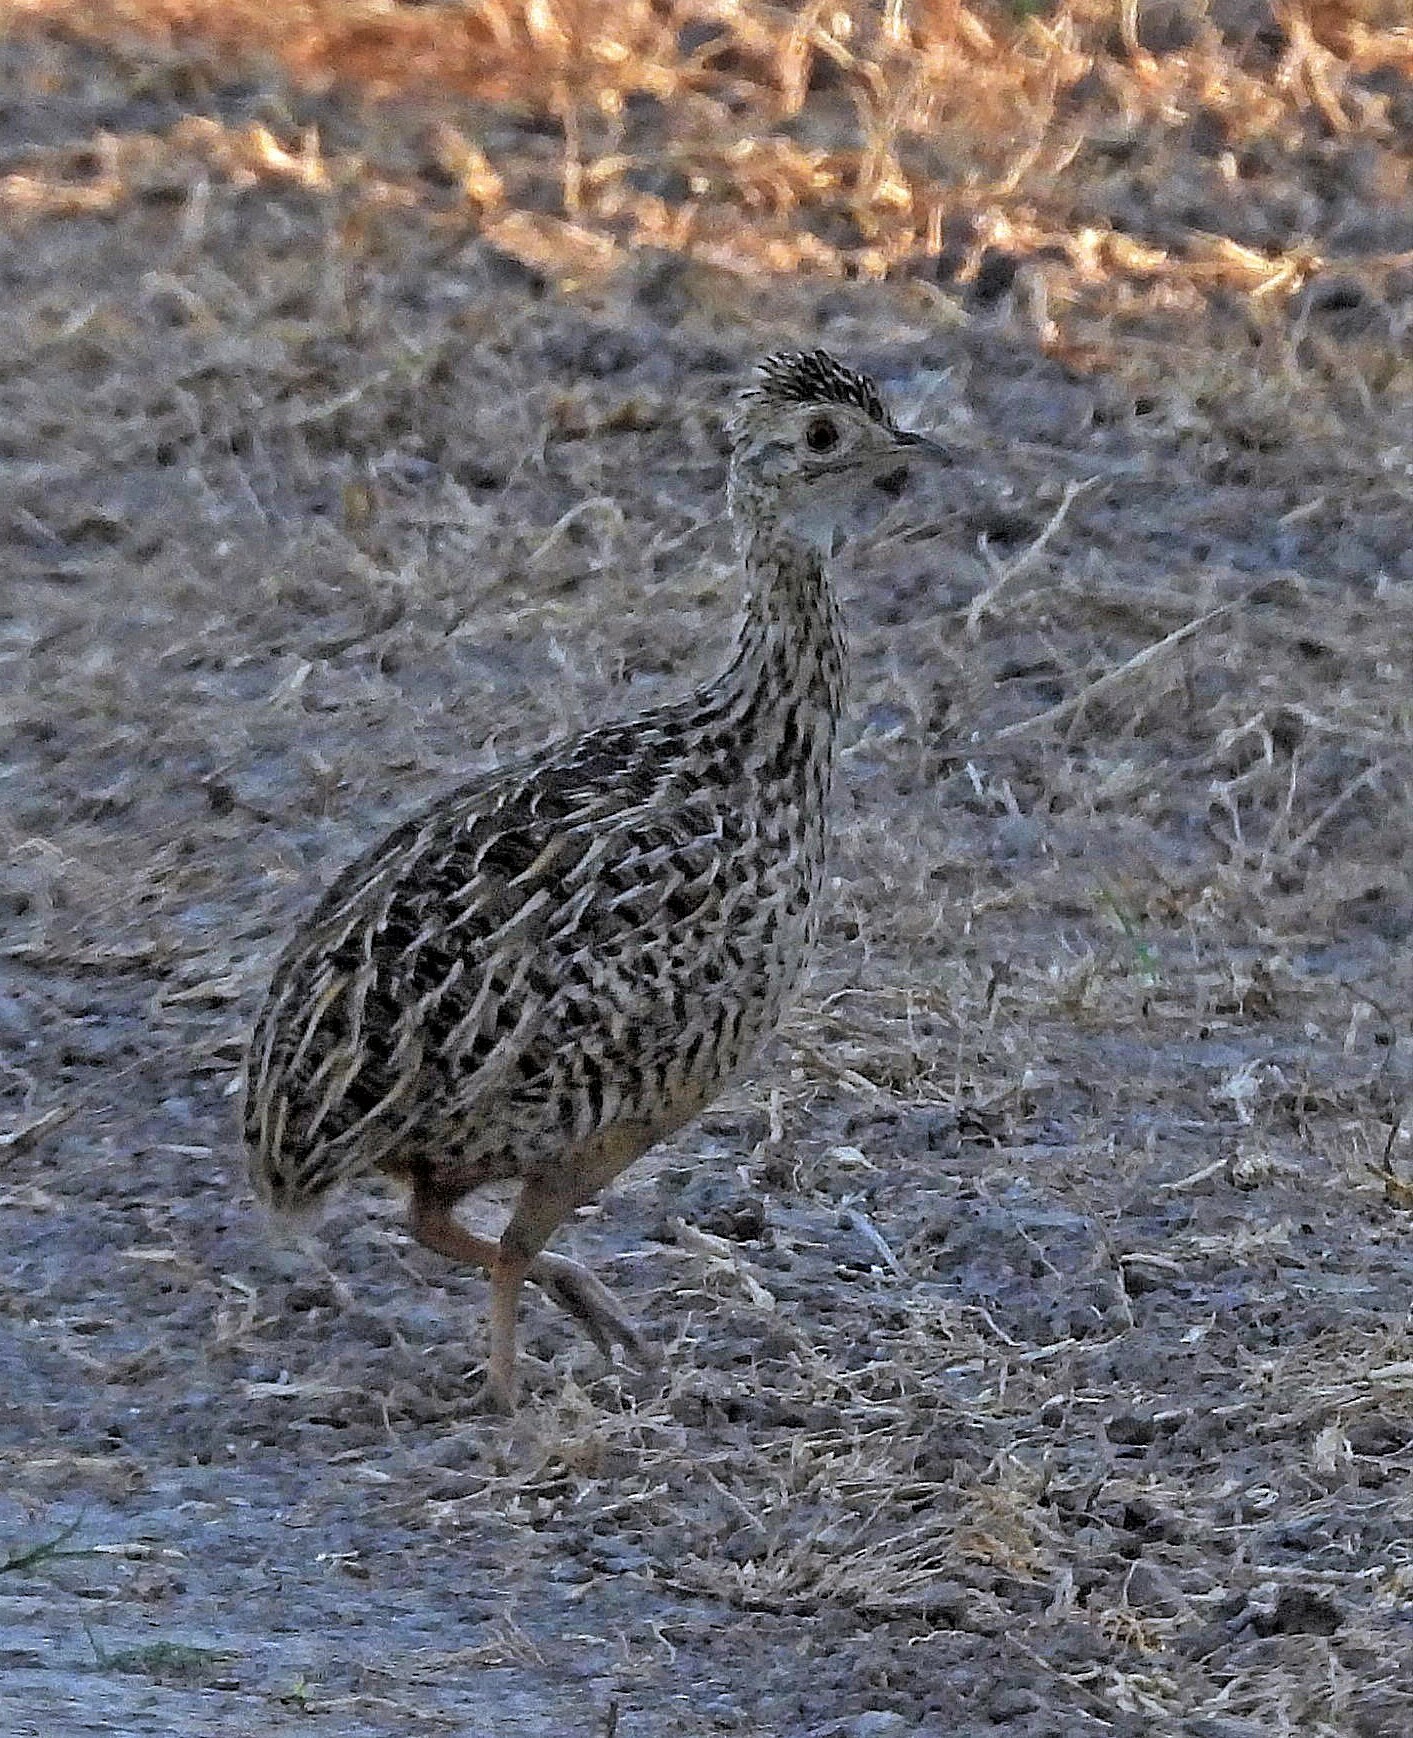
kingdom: Animalia
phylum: Chordata
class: Aves
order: Tinamiformes
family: Tinamidae
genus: Nothura
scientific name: Nothura maculosa
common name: Spotted nothura
